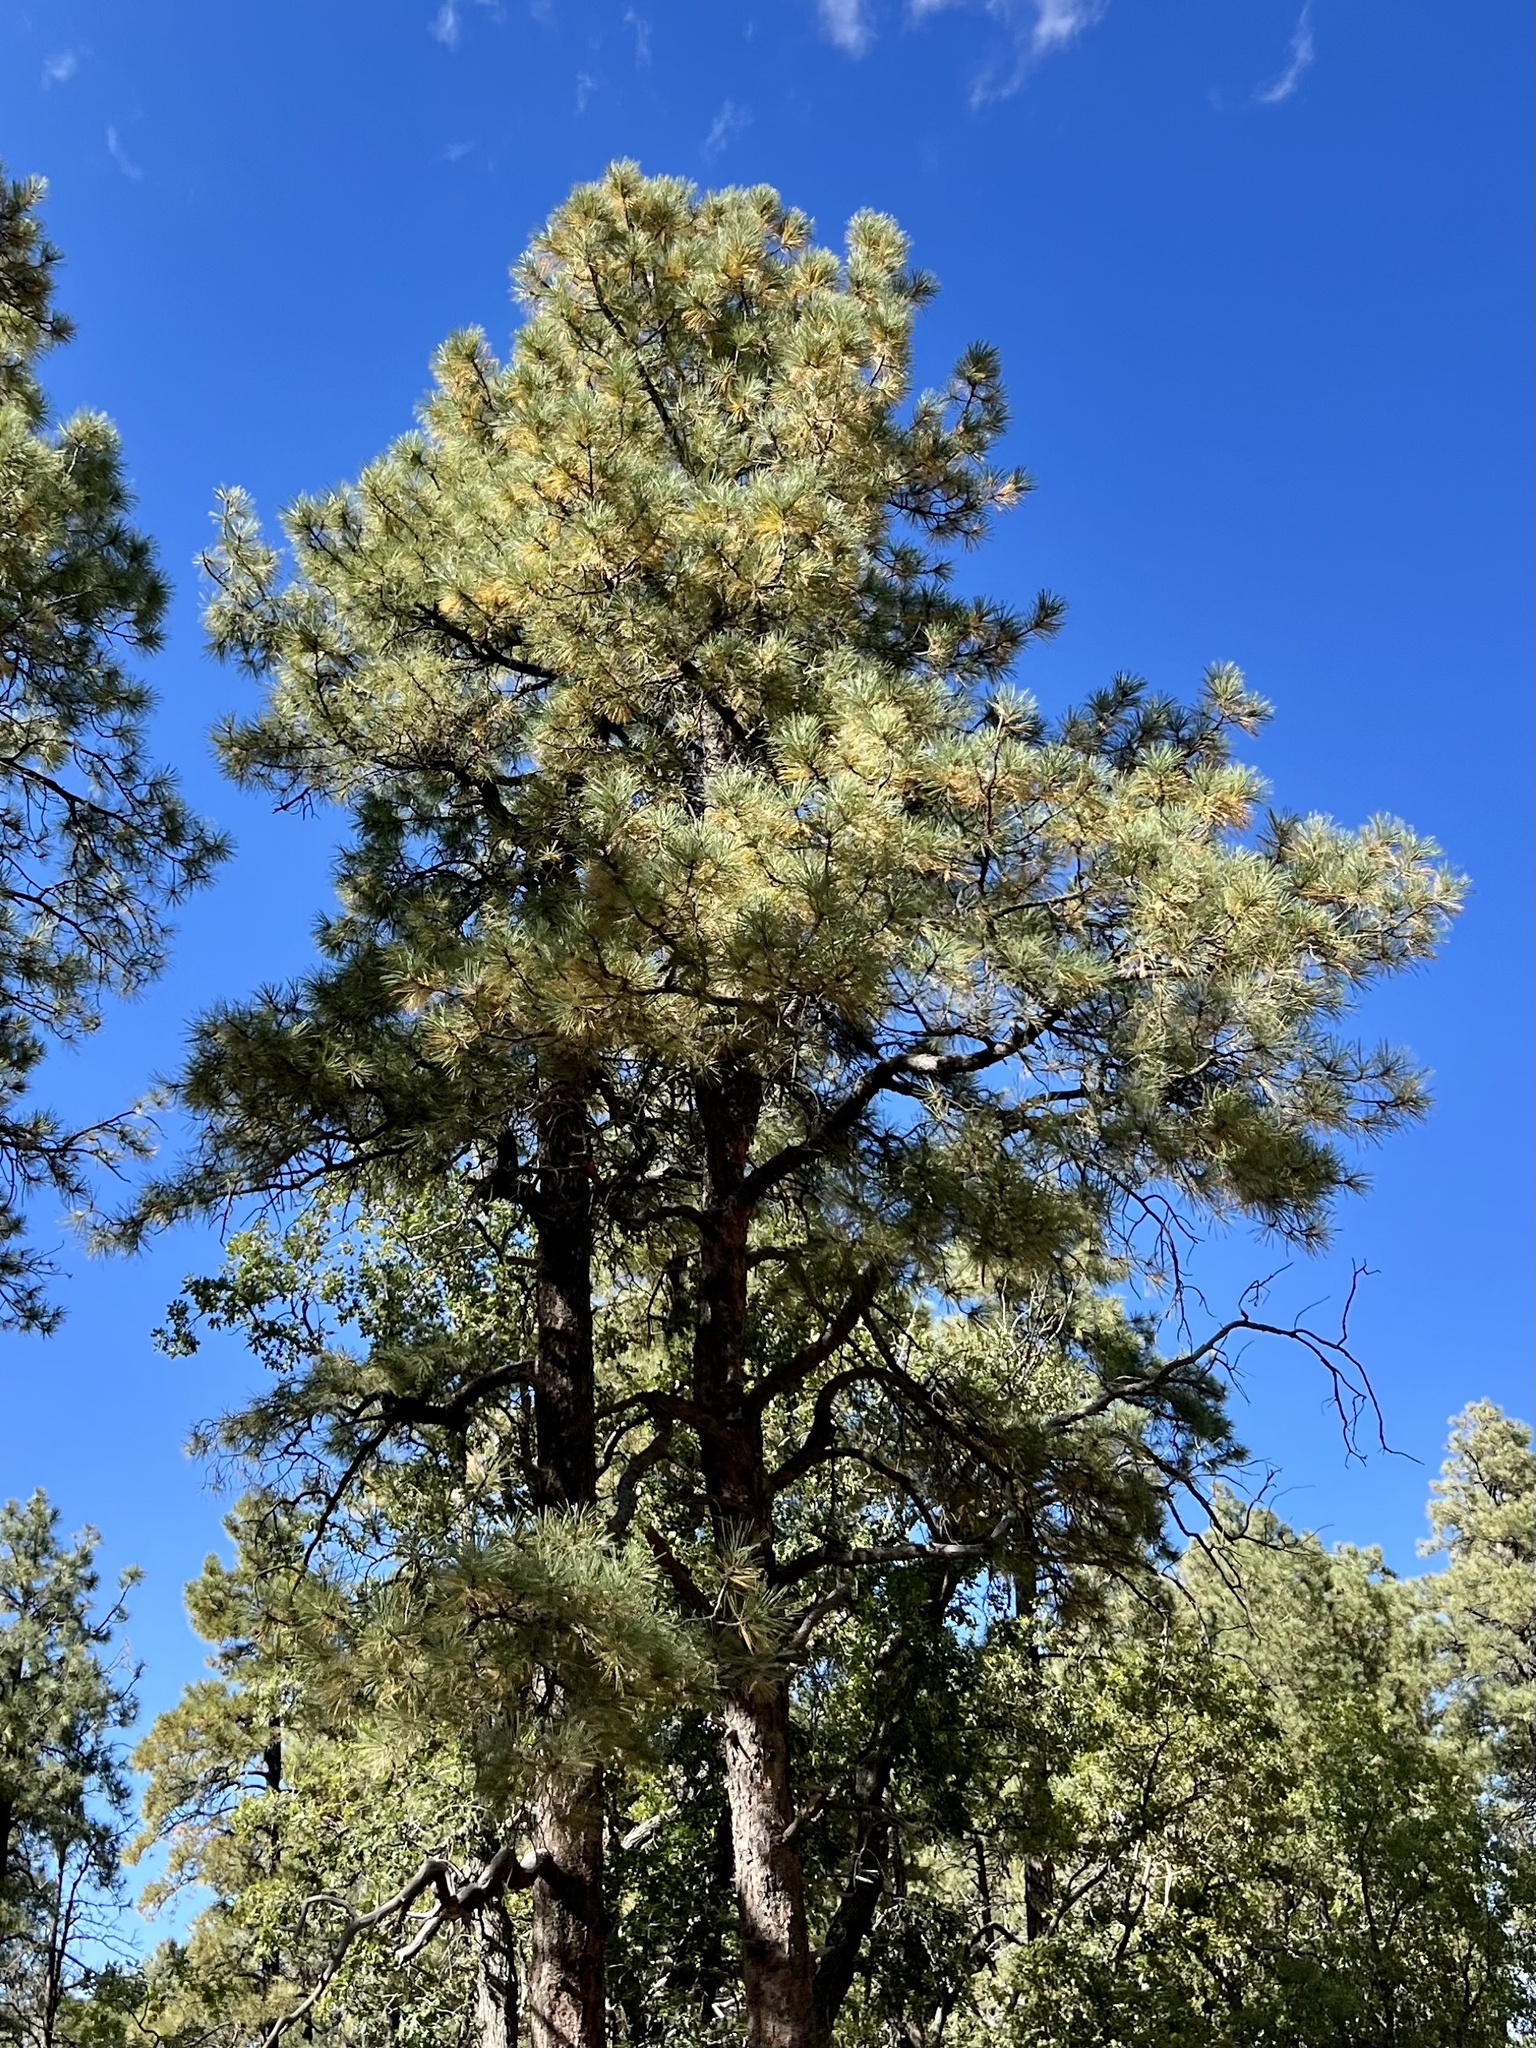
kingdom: Plantae
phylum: Tracheophyta
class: Pinopsida
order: Pinales
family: Pinaceae
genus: Pinus
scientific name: Pinus ponderosa
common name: Western yellow-pine
